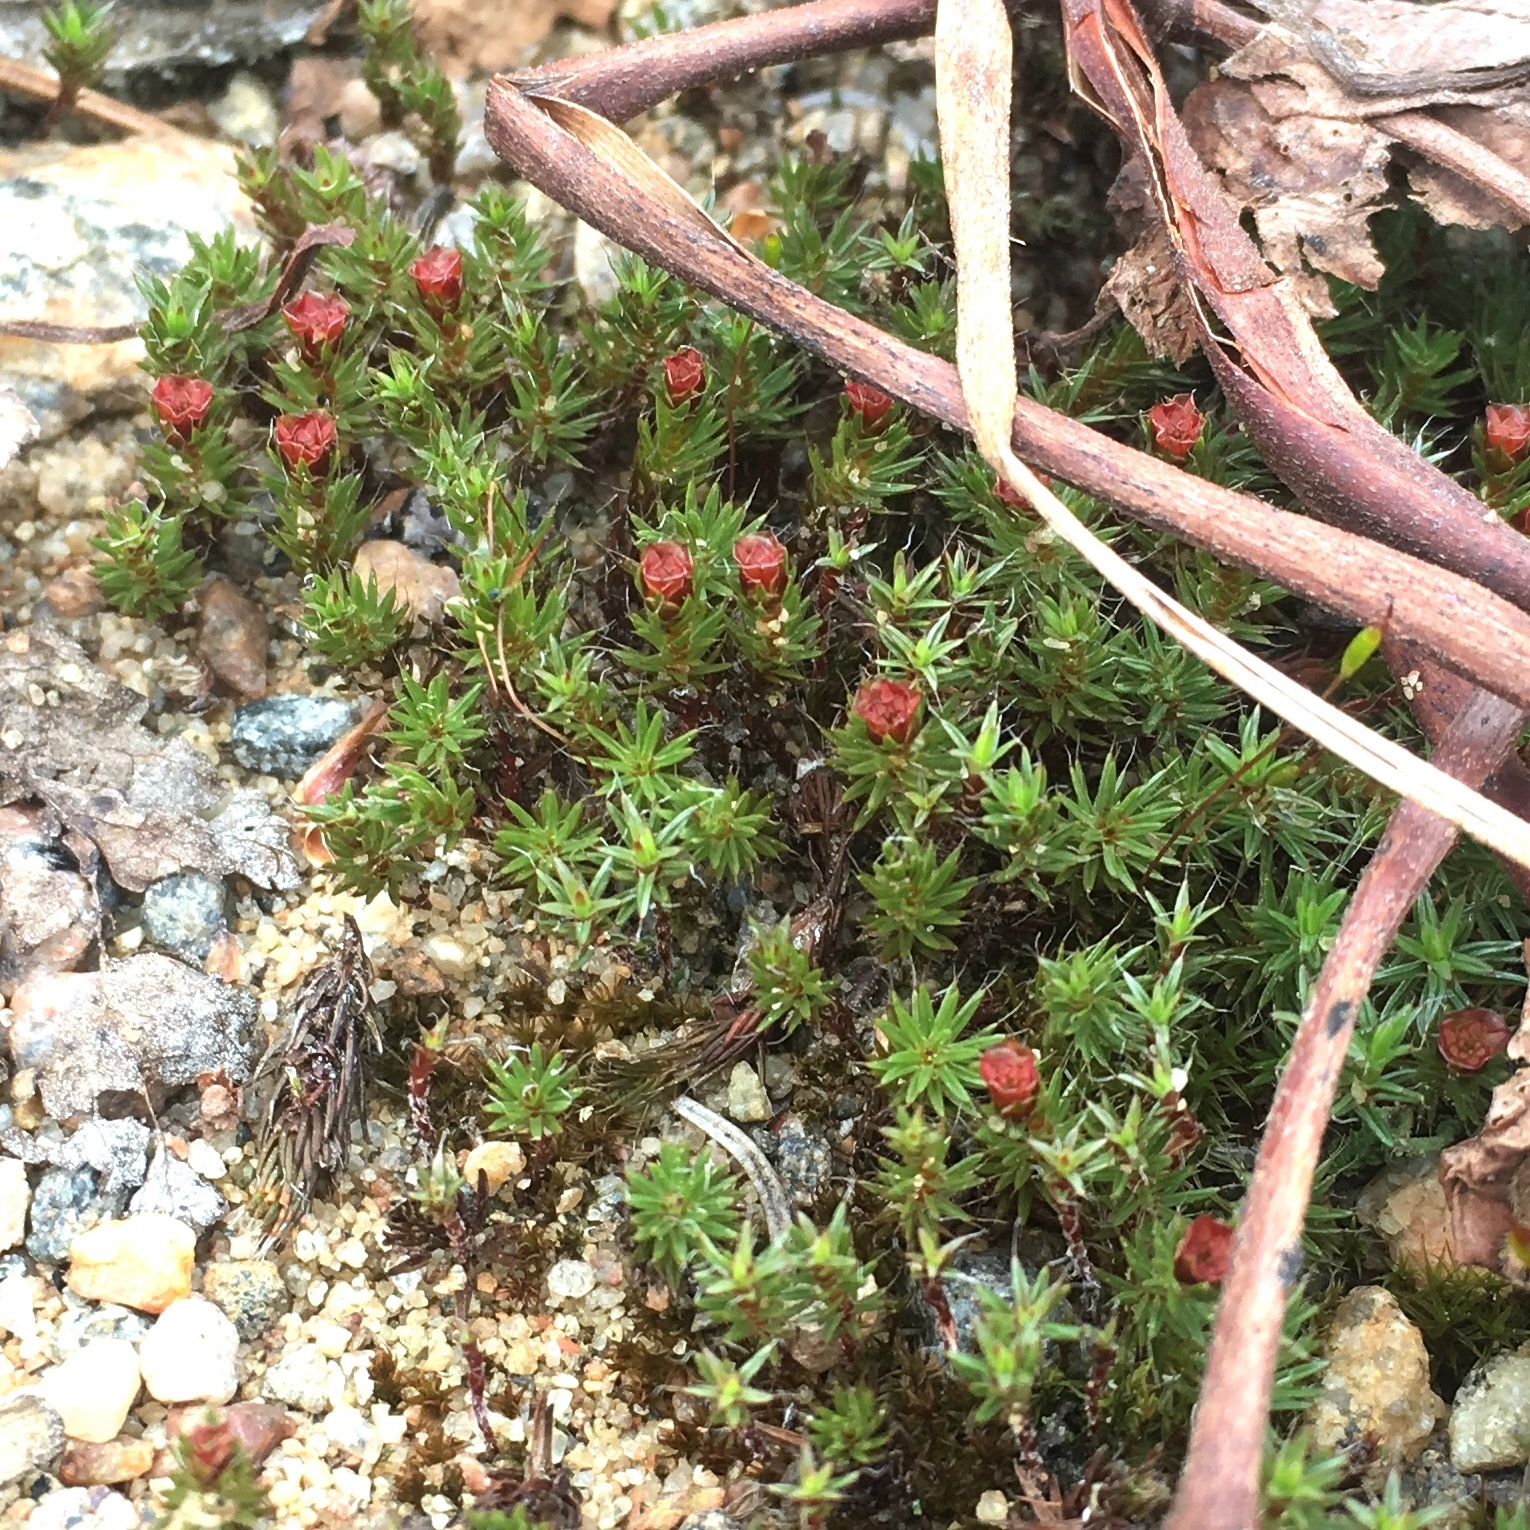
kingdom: Plantae
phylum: Bryophyta
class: Polytrichopsida
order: Polytrichales
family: Polytrichaceae
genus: Polytrichum
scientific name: Polytrichum piliferum
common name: Bristly haircap
